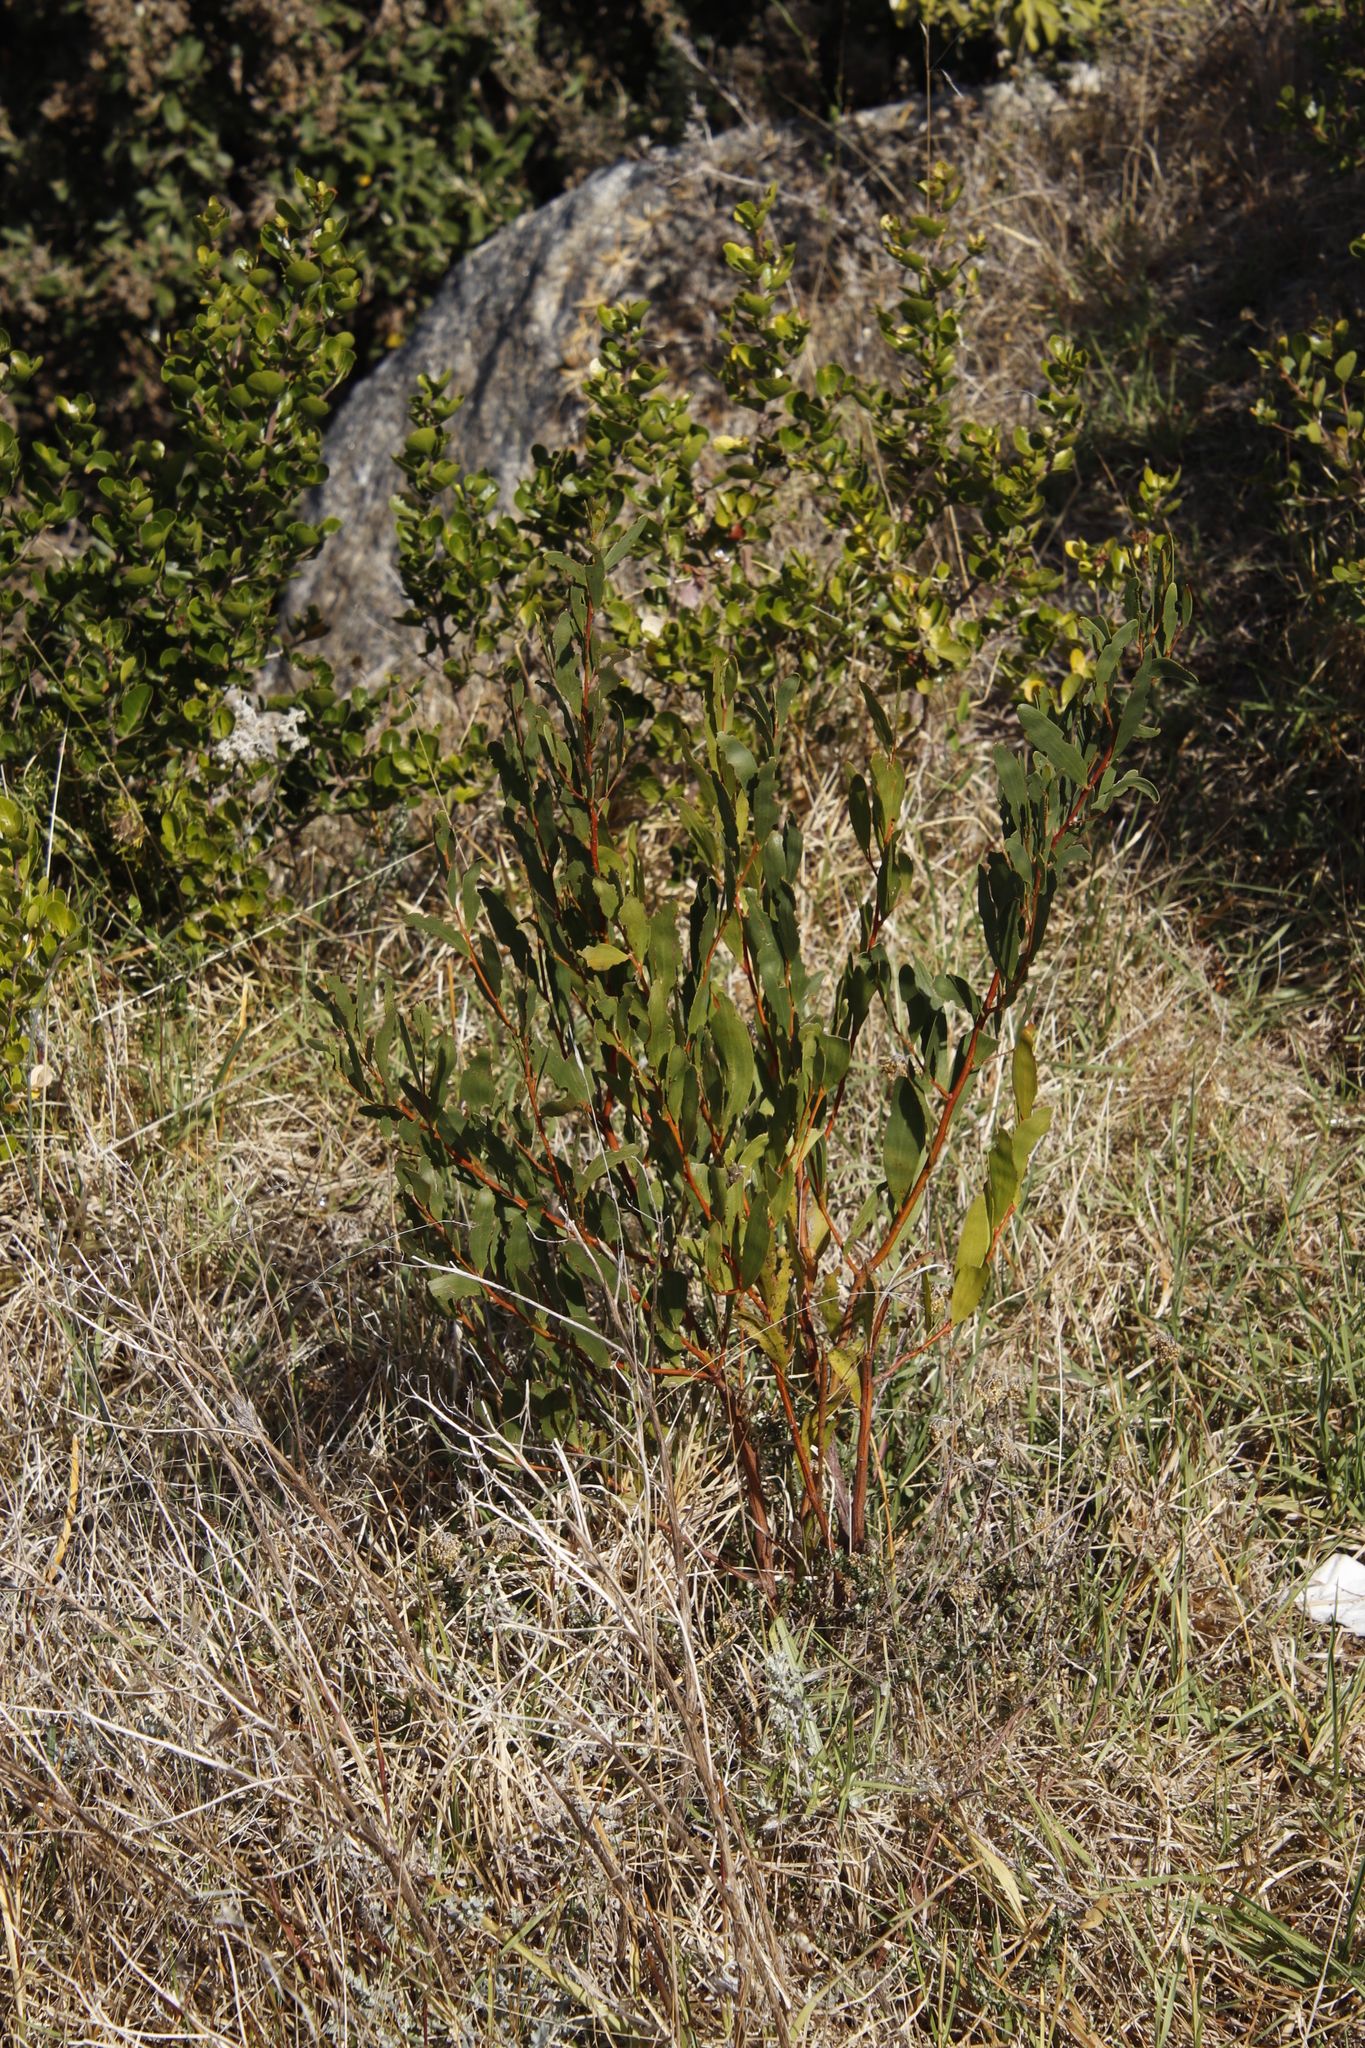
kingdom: Plantae
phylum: Tracheophyta
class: Magnoliopsida
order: Fabales
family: Fabaceae
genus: Acacia
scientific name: Acacia cyclops
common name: Coastal wattle
